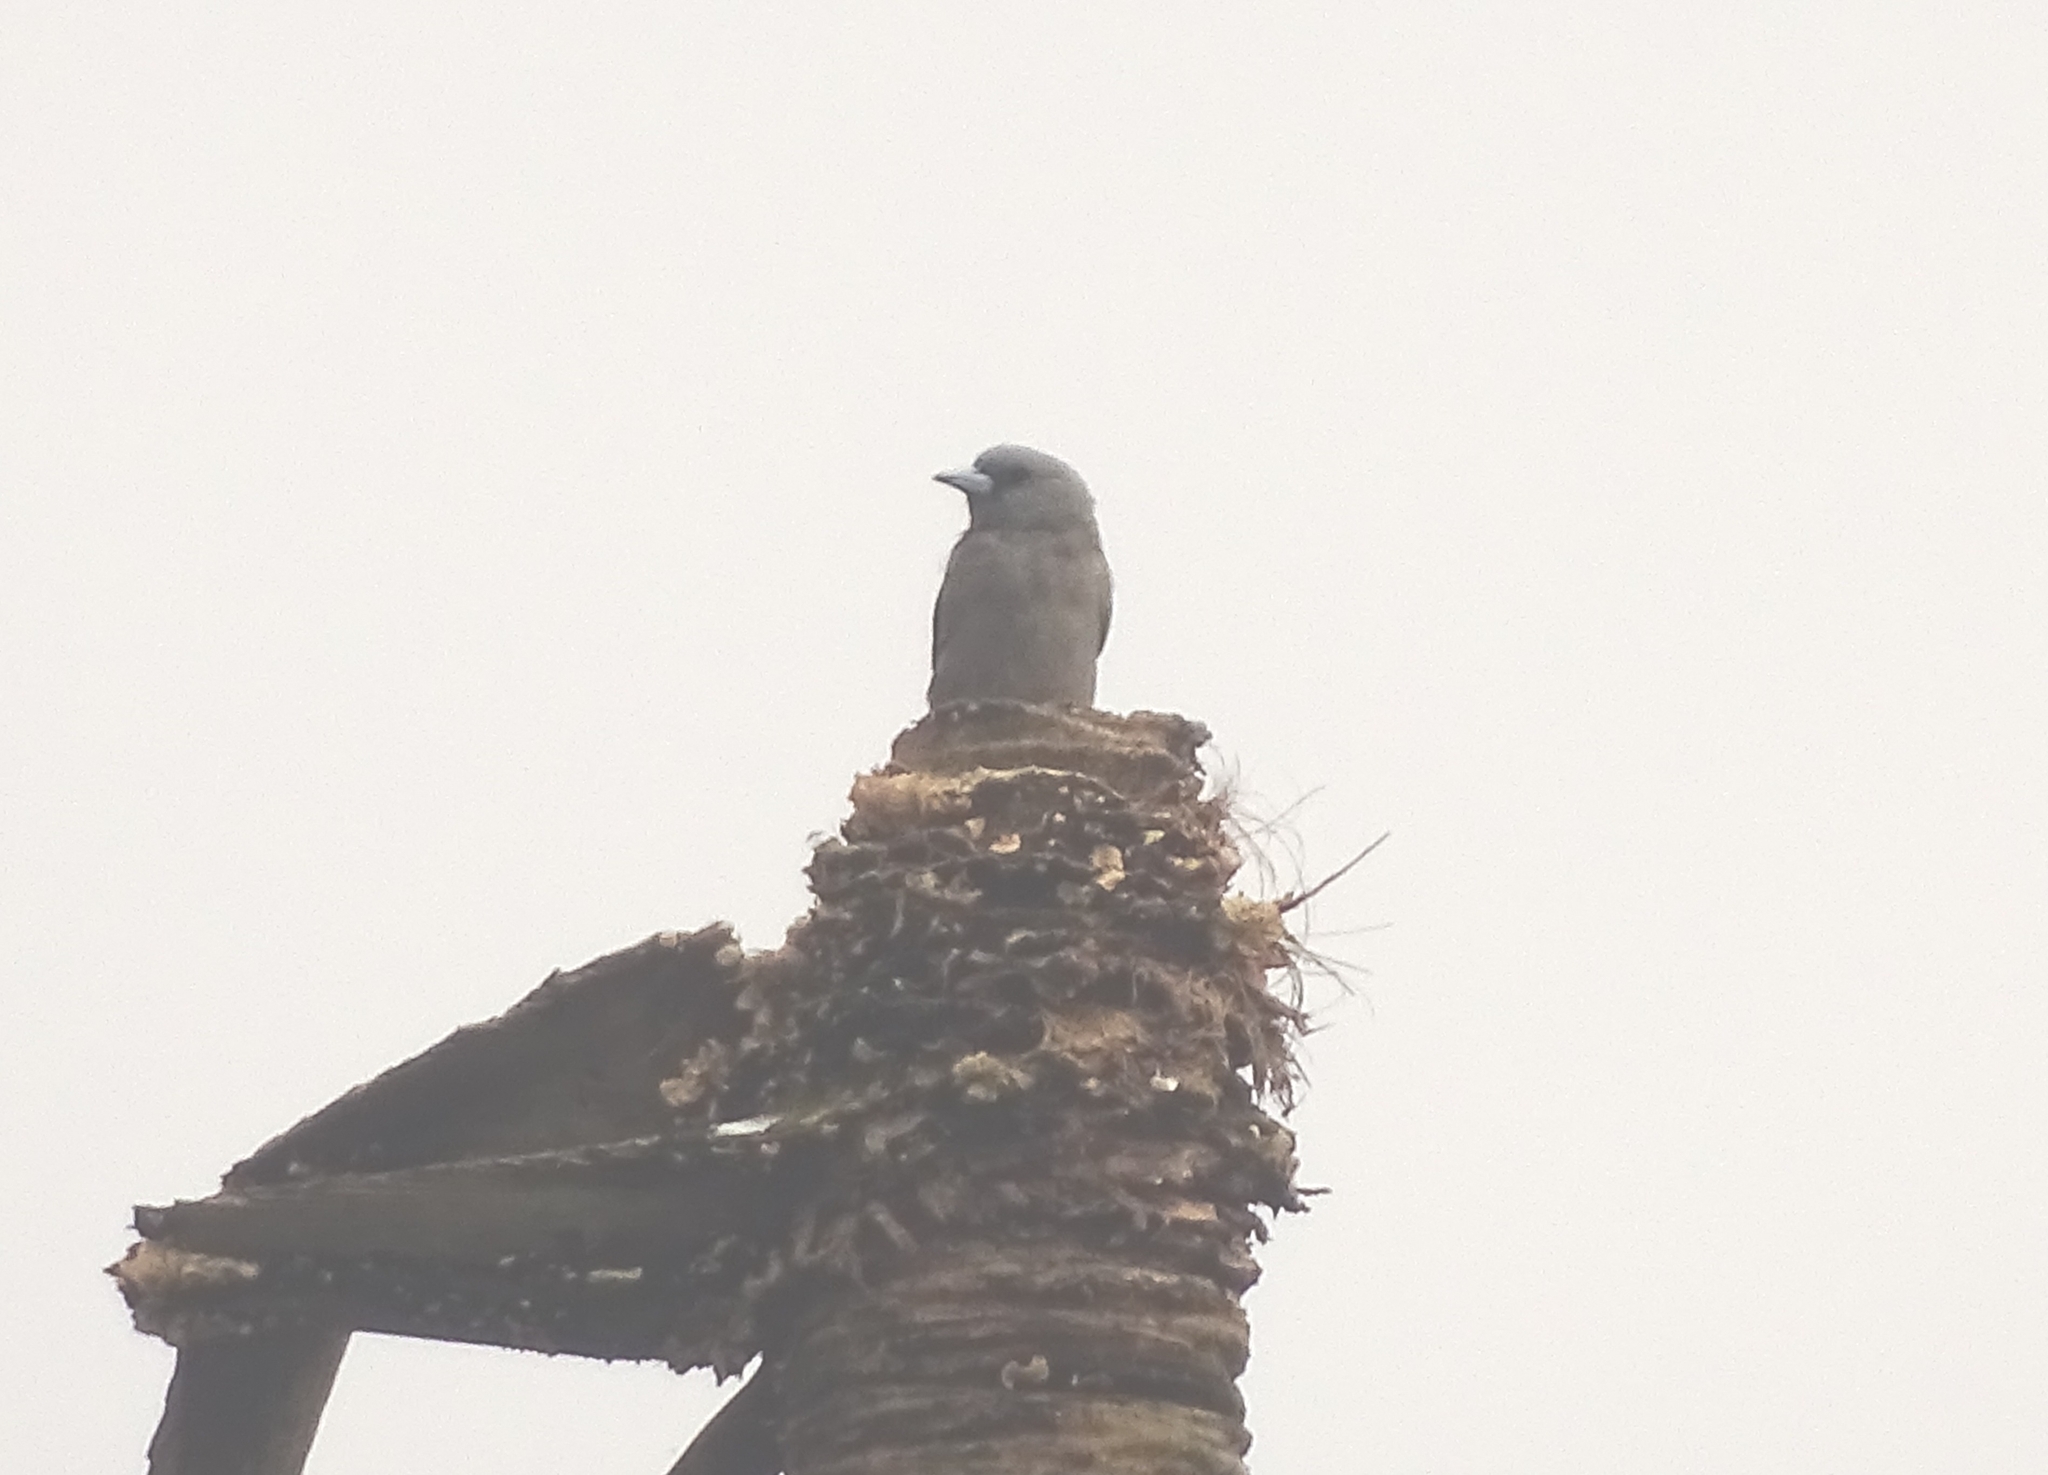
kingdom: Animalia
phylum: Chordata
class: Aves
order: Passeriformes
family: Artamidae
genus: Artamus
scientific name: Artamus fuscus
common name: Ashy woodswallow
